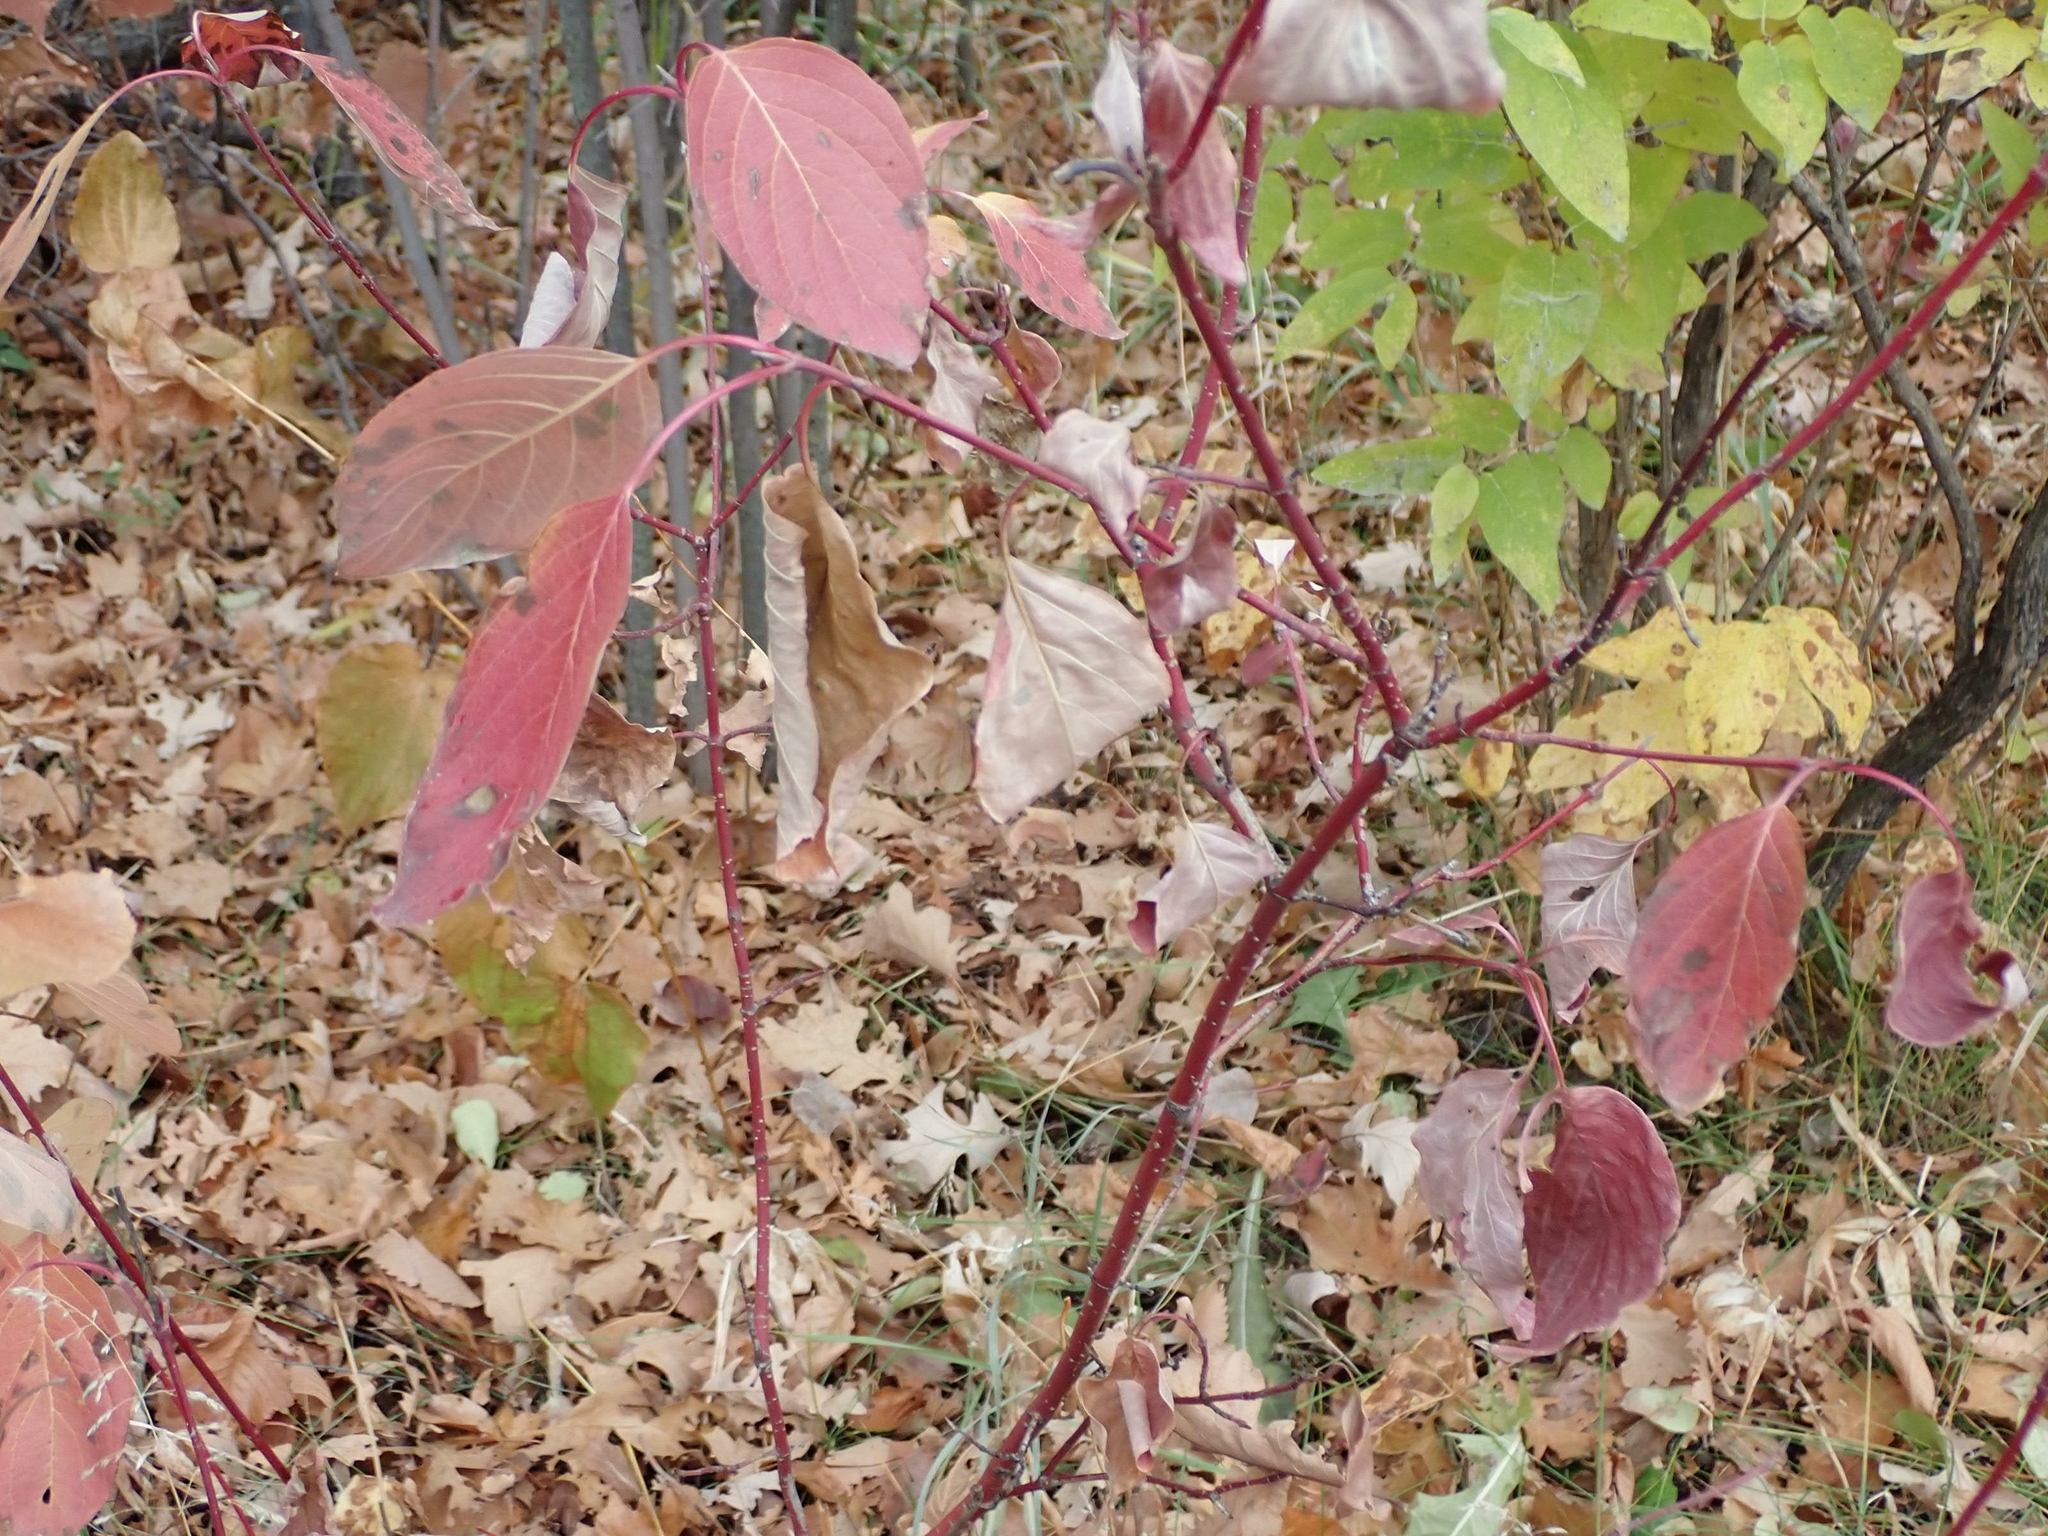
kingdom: Plantae
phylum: Tracheophyta
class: Magnoliopsida
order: Cornales
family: Cornaceae
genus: Cornus
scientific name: Cornus sericea
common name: Red-osier dogwood
